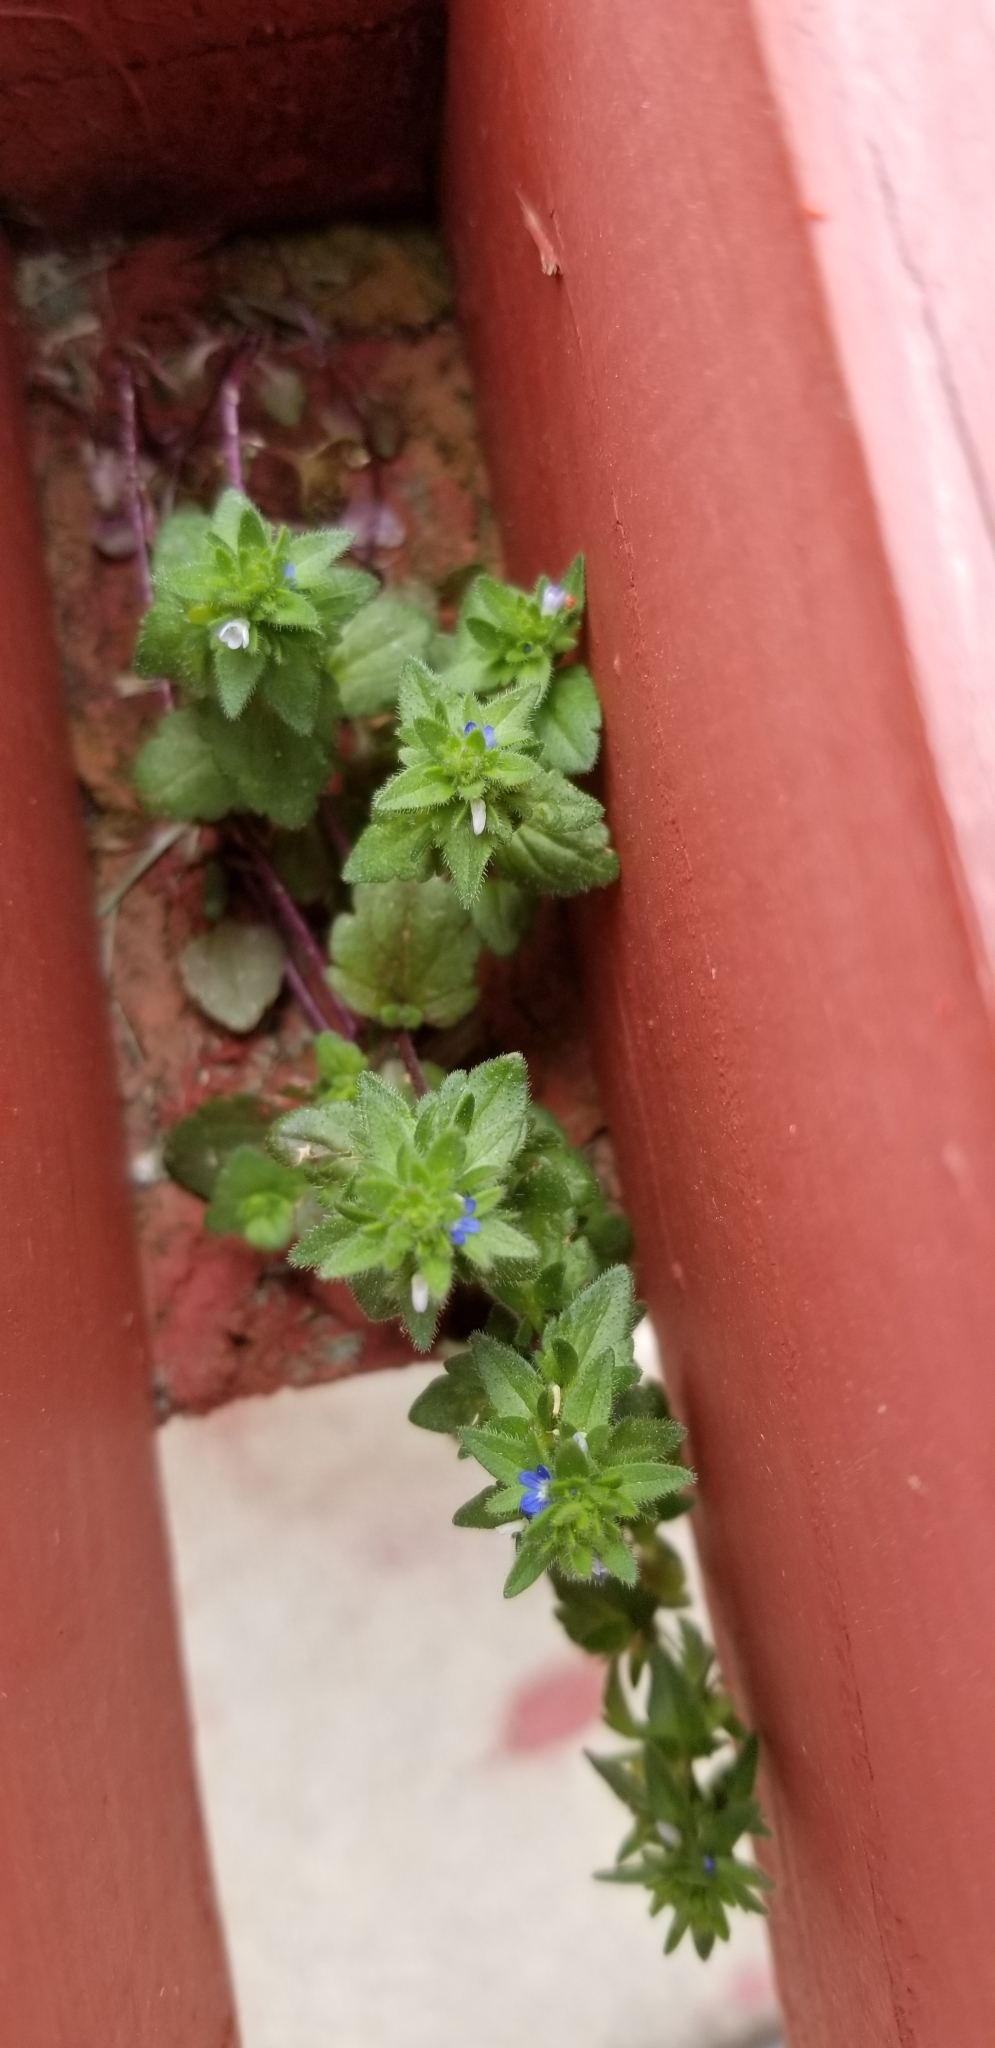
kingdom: Plantae
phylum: Tracheophyta
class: Magnoliopsida
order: Lamiales
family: Plantaginaceae
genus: Veronica
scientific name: Veronica arvensis
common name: Corn speedwell
